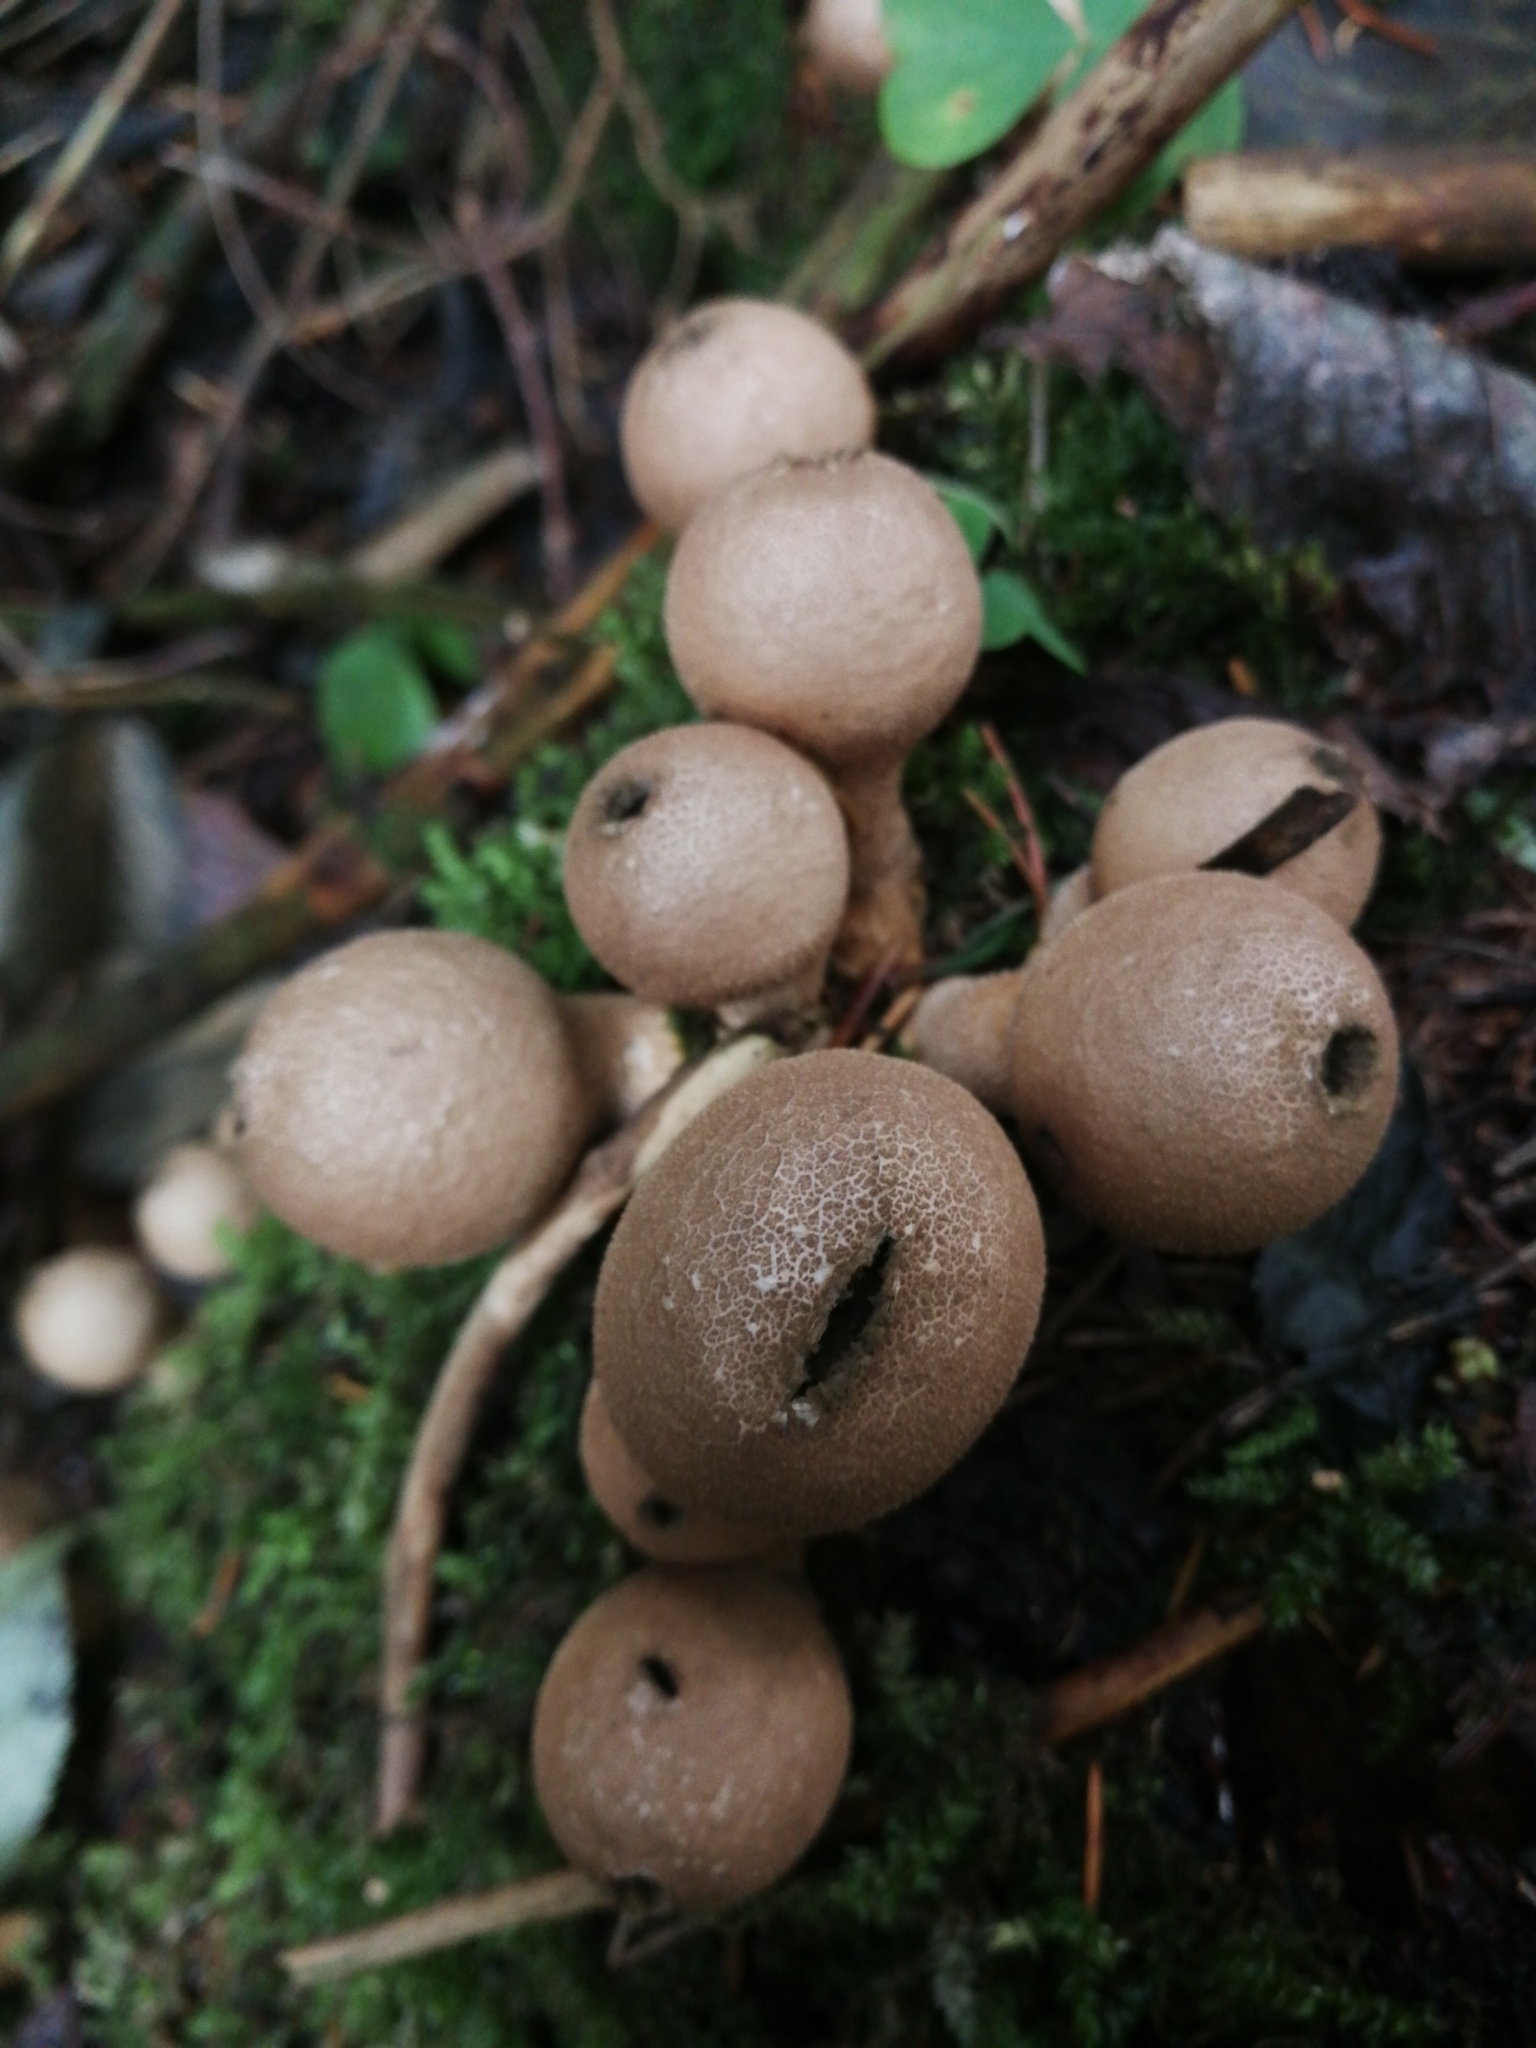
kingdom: Fungi
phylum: Basidiomycota
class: Agaricomycetes
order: Agaricales
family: Lycoperdaceae
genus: Apioperdon
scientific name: Apioperdon pyriforme
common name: Pear-shaped puffball
